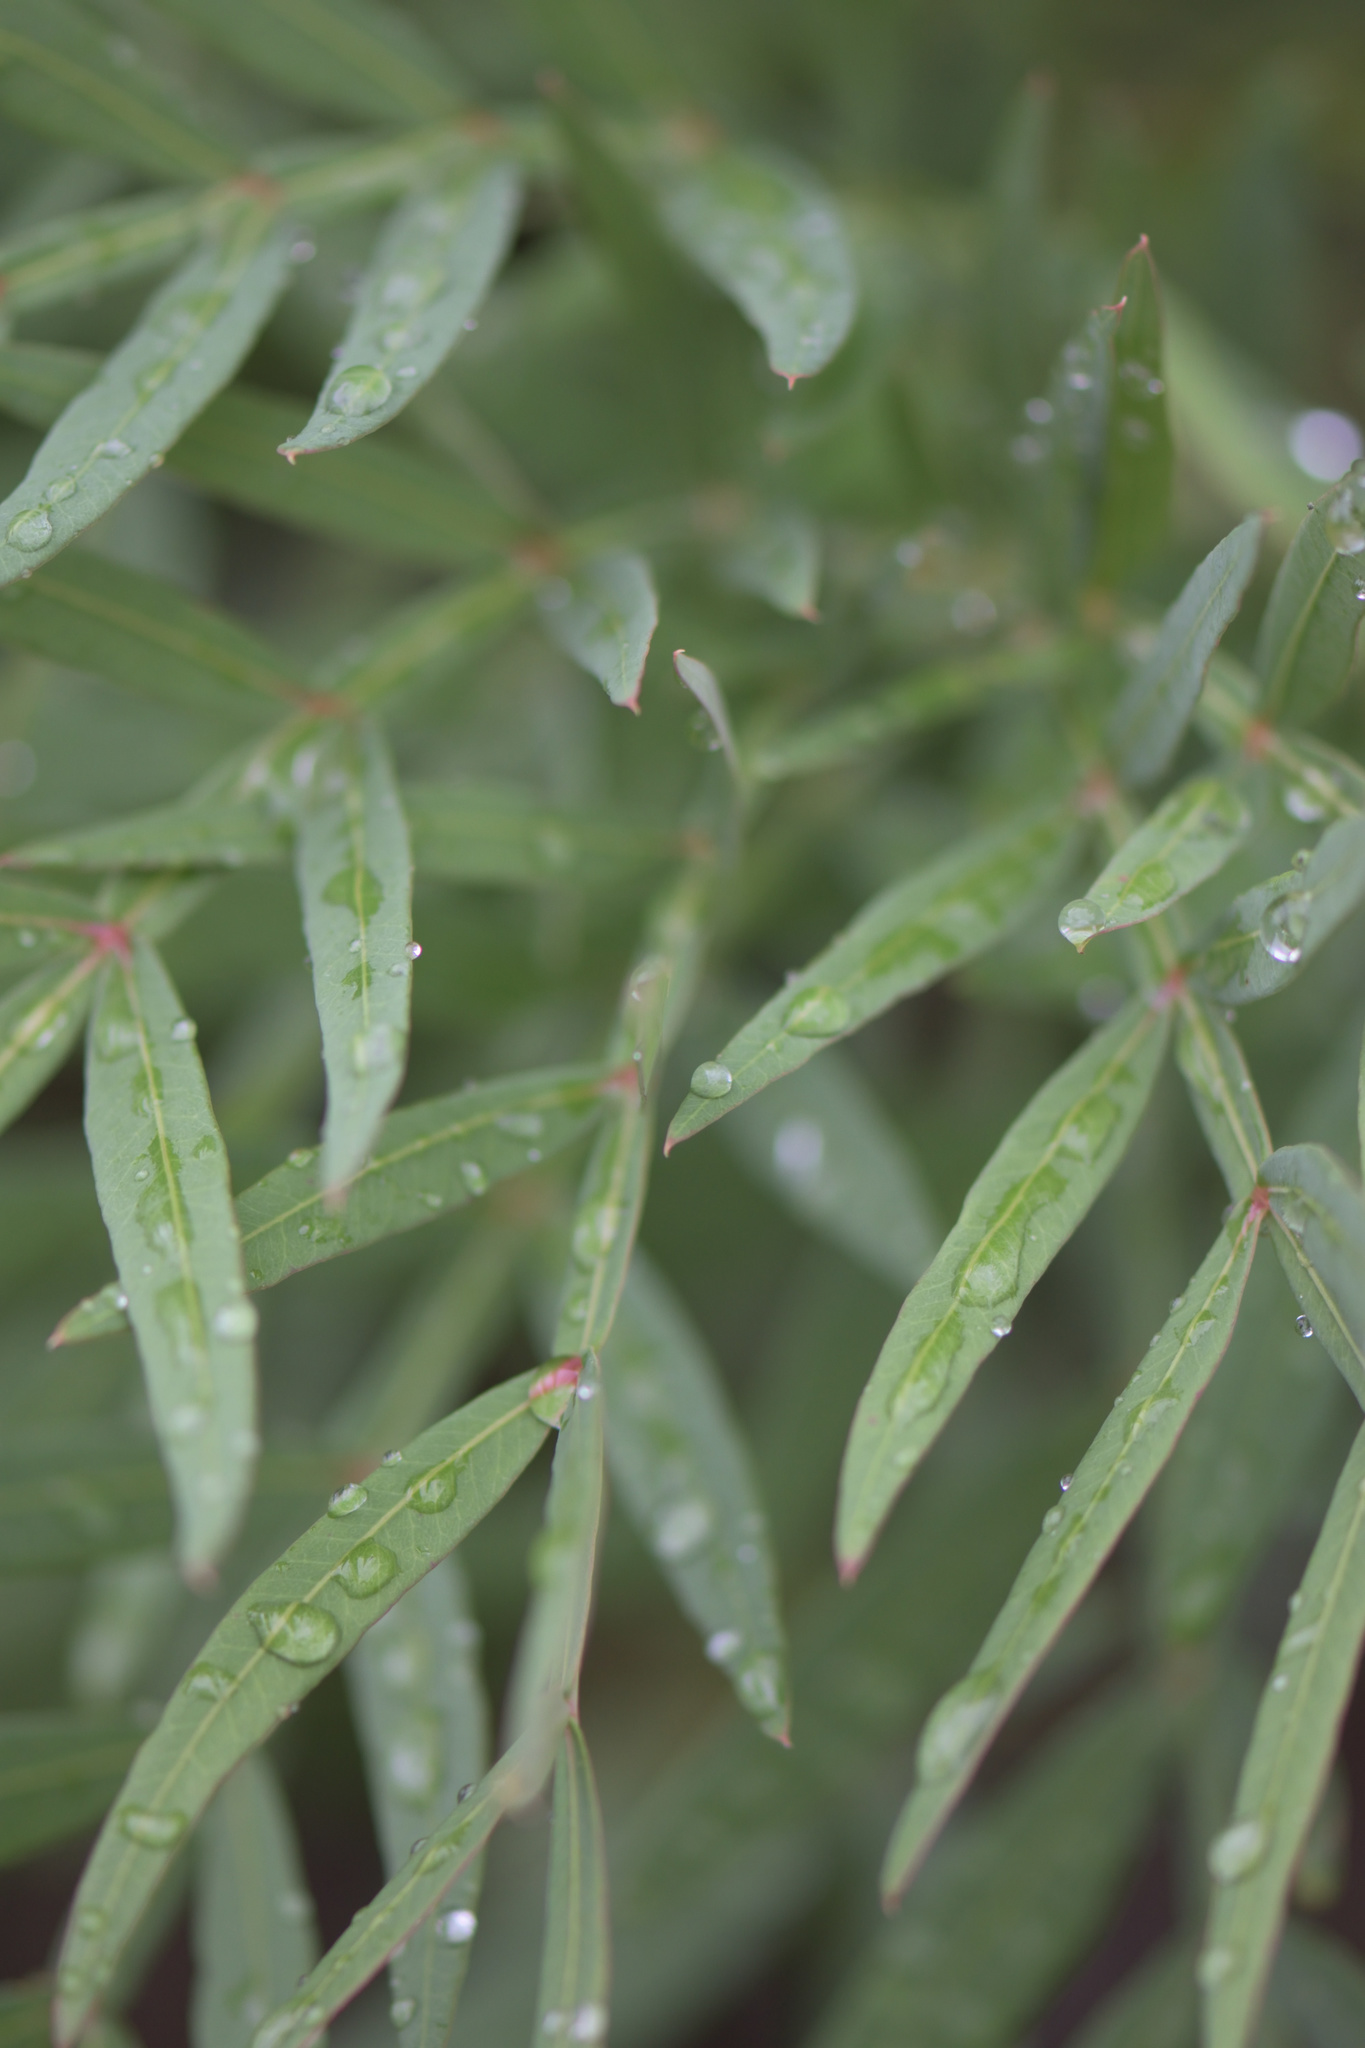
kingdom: Plantae
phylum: Tracheophyta
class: Magnoliopsida
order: Sapindales
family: Anacardiaceae
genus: Loxostylis
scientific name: Loxostylis alata
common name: Wild peppertree
